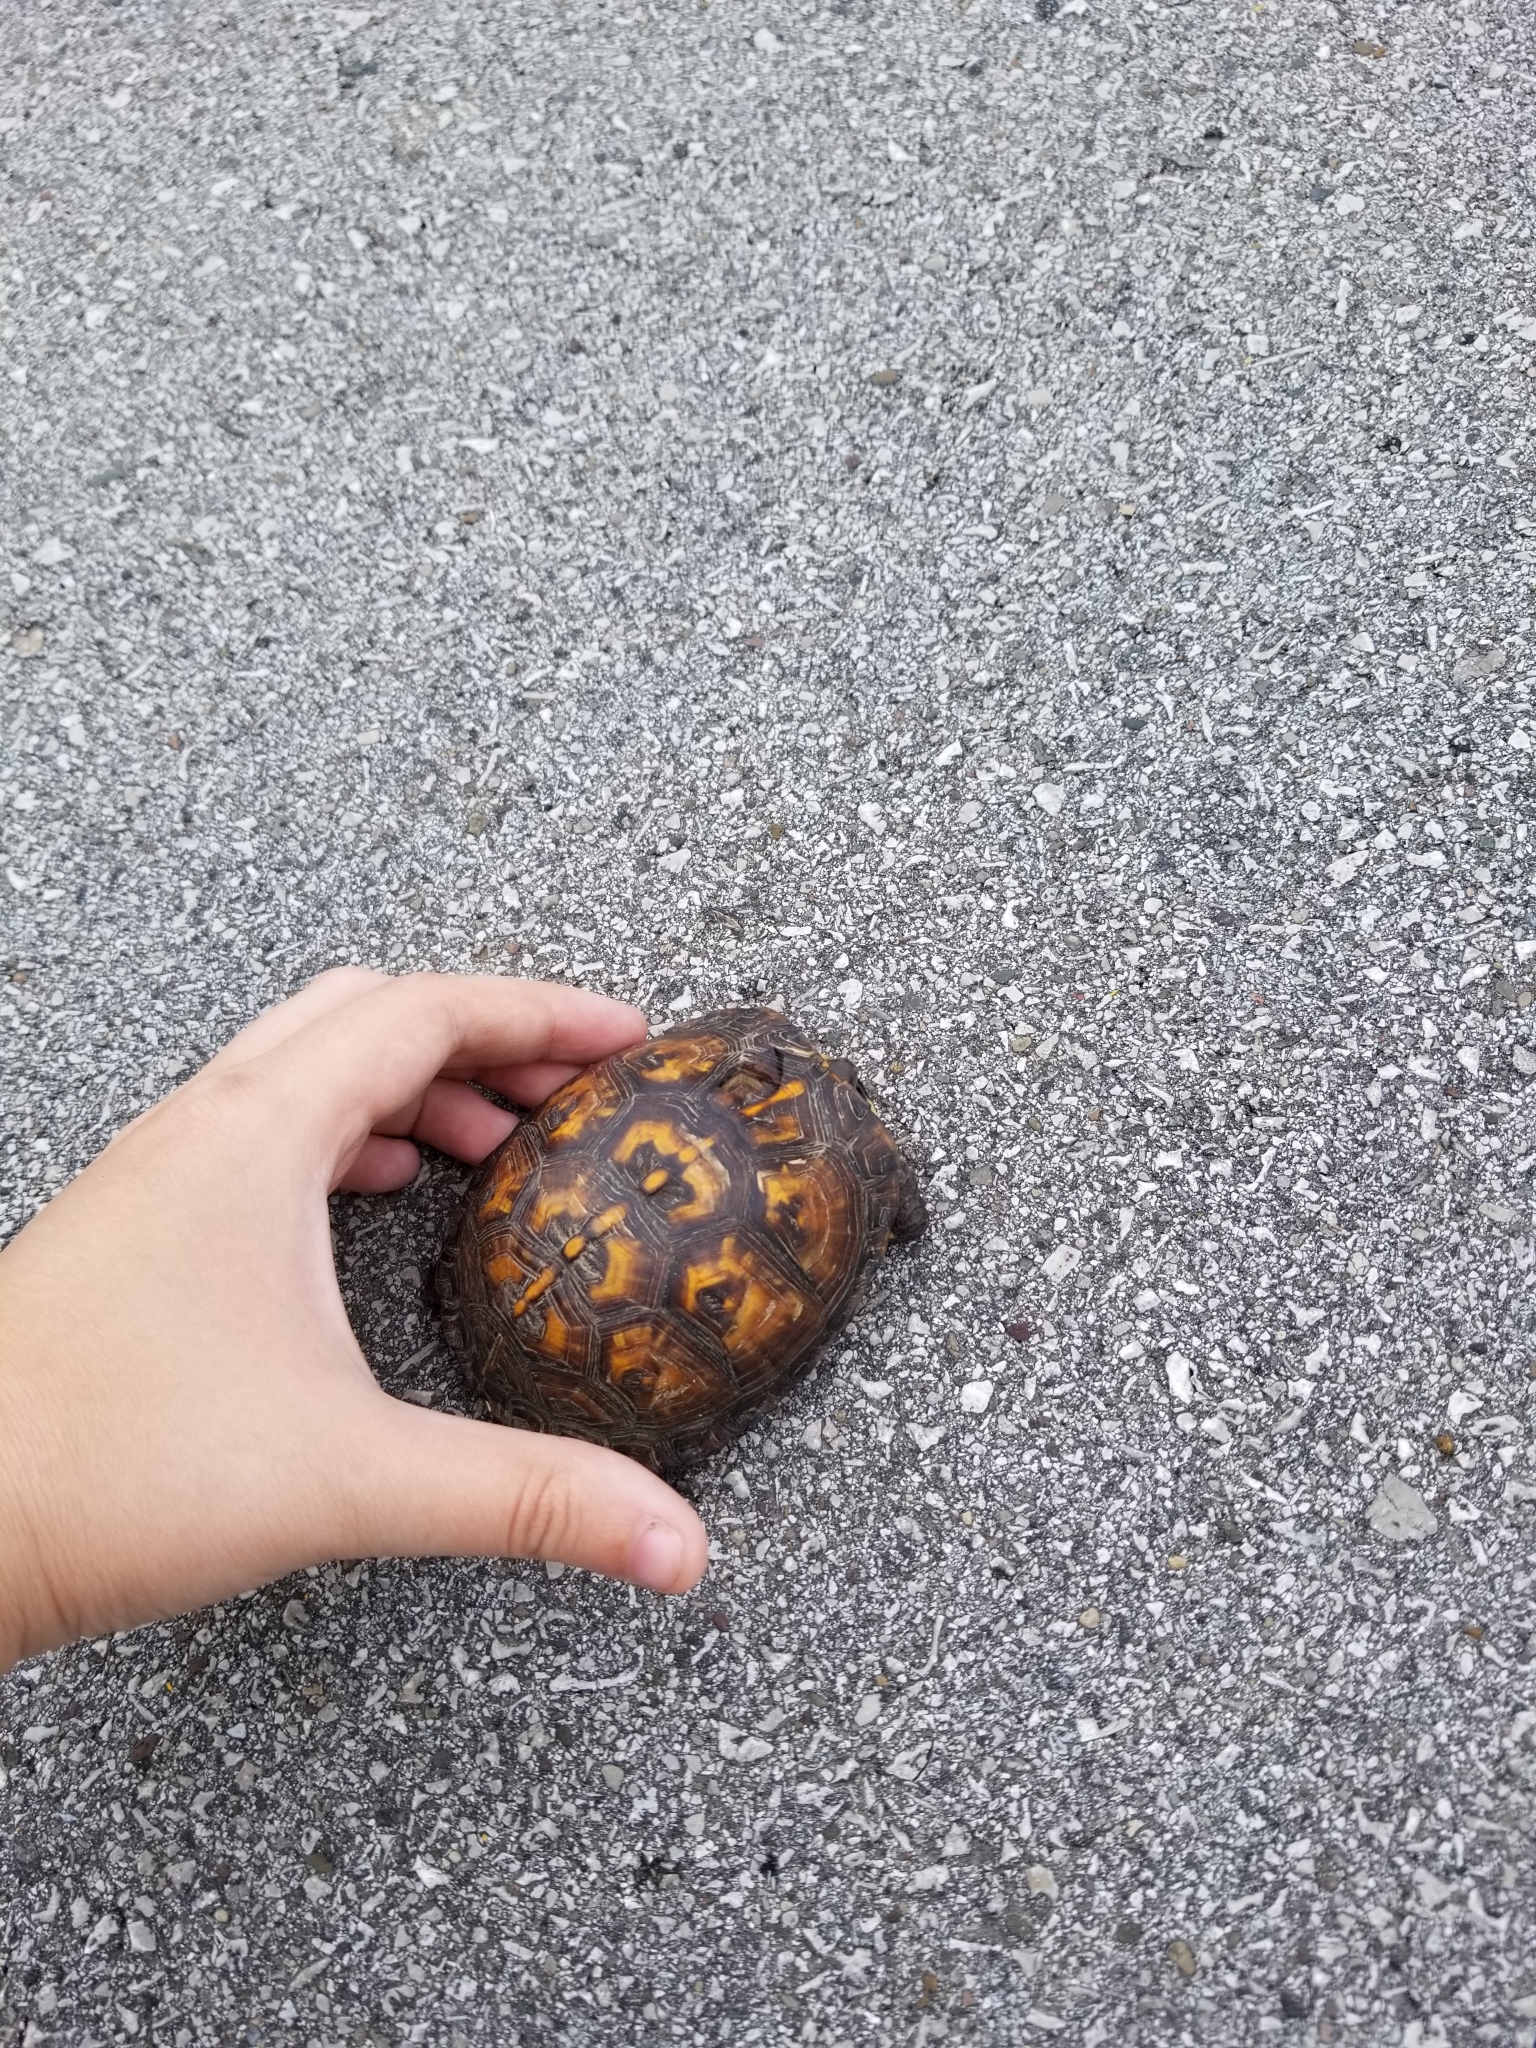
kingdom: Animalia
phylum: Chordata
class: Testudines
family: Emydidae
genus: Terrapene
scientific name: Terrapene carolina
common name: Common box turtle
